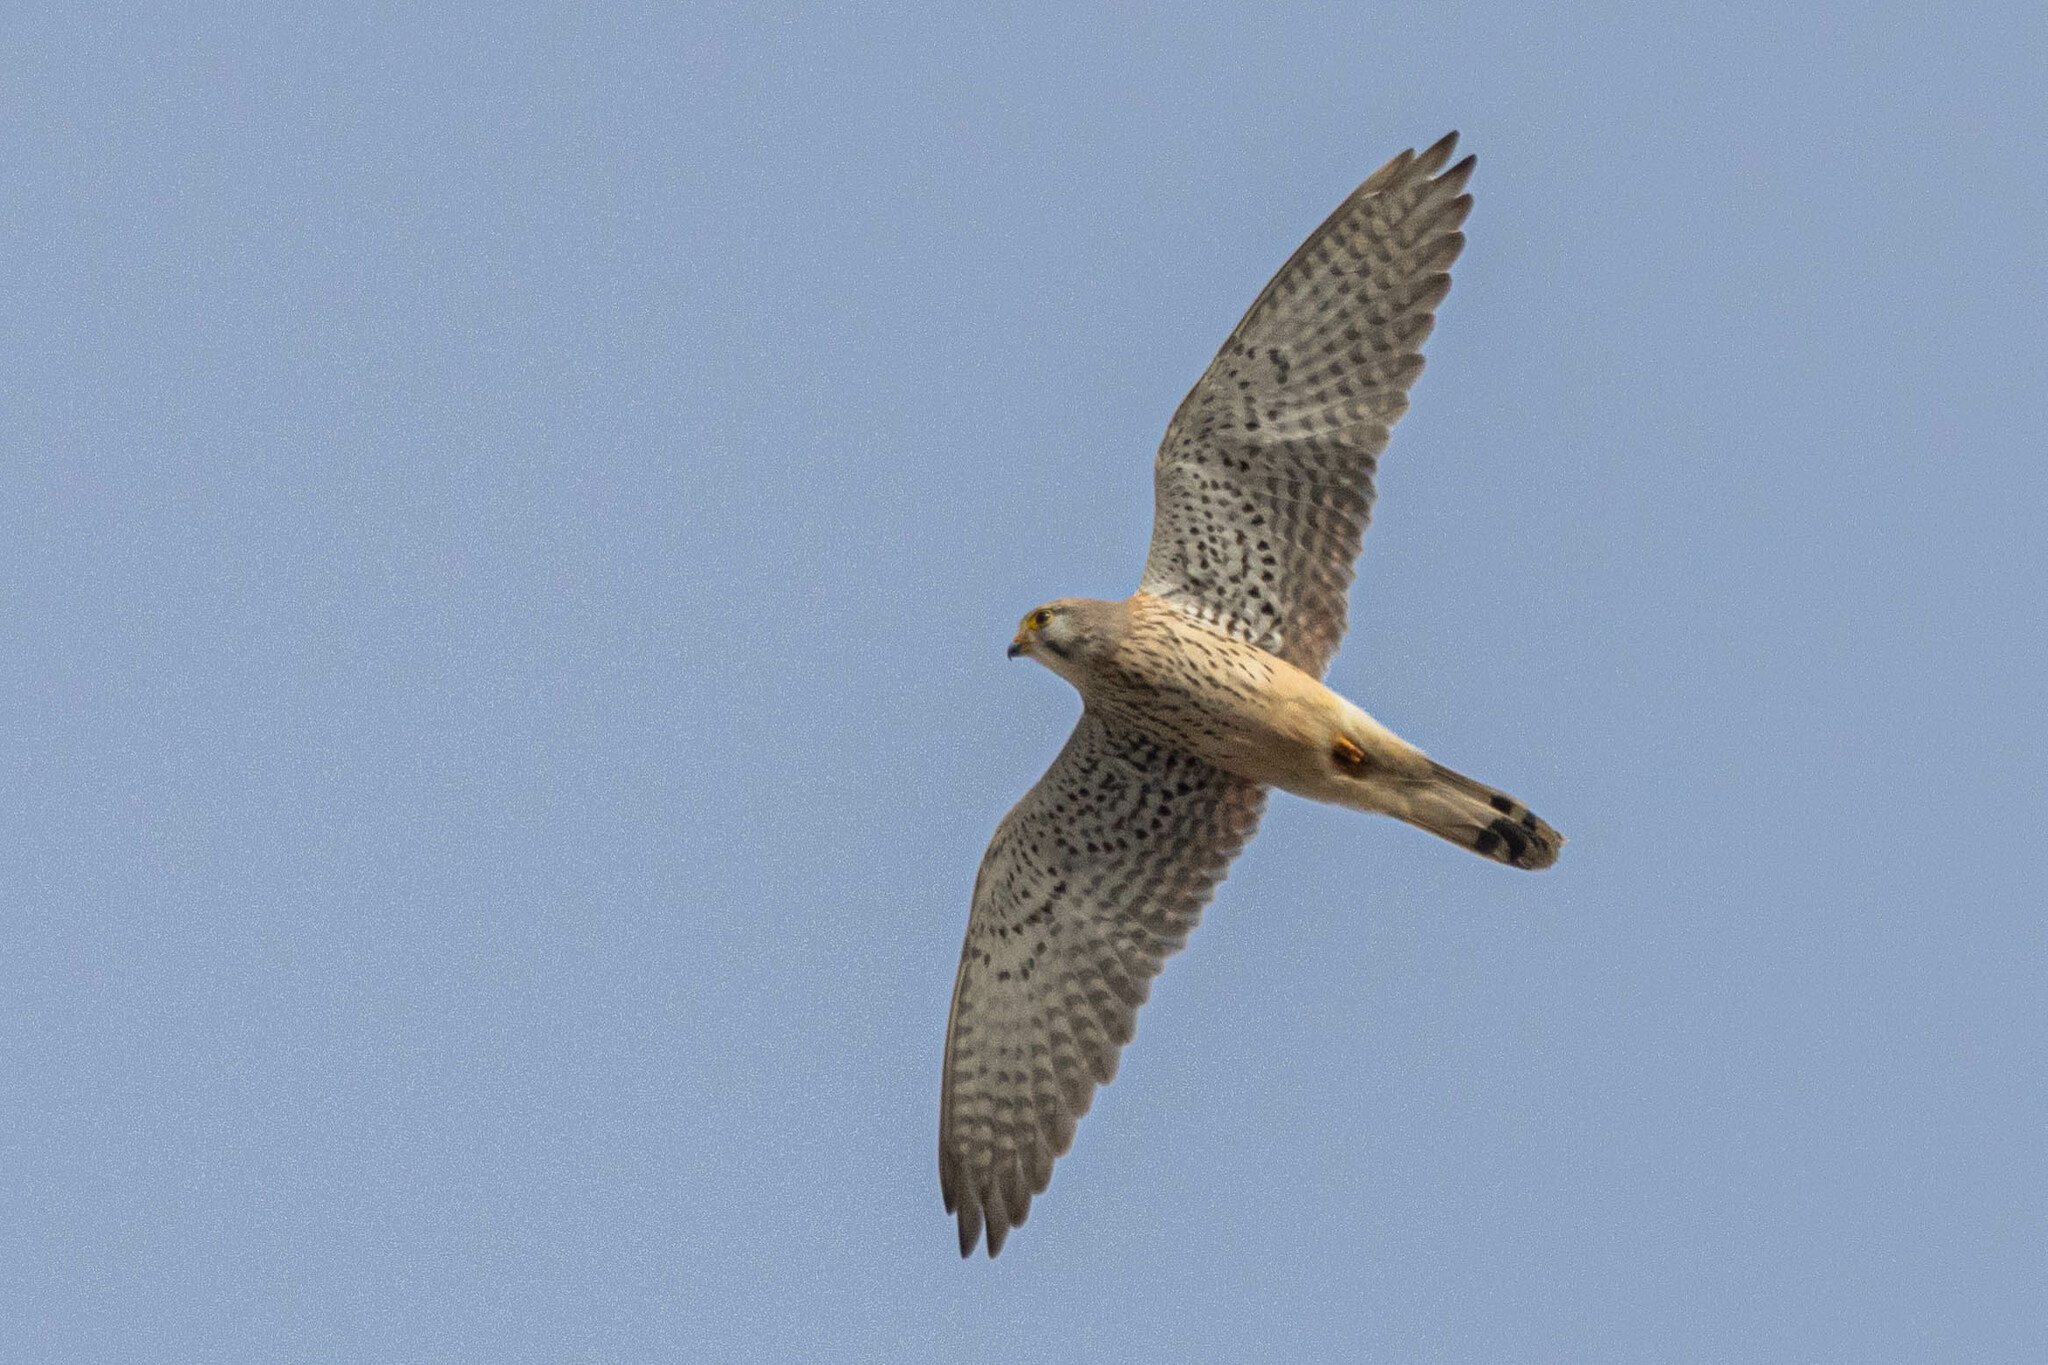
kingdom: Animalia
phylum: Chordata
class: Aves
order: Falconiformes
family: Falconidae
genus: Falco
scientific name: Falco tinnunculus
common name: Common kestrel
